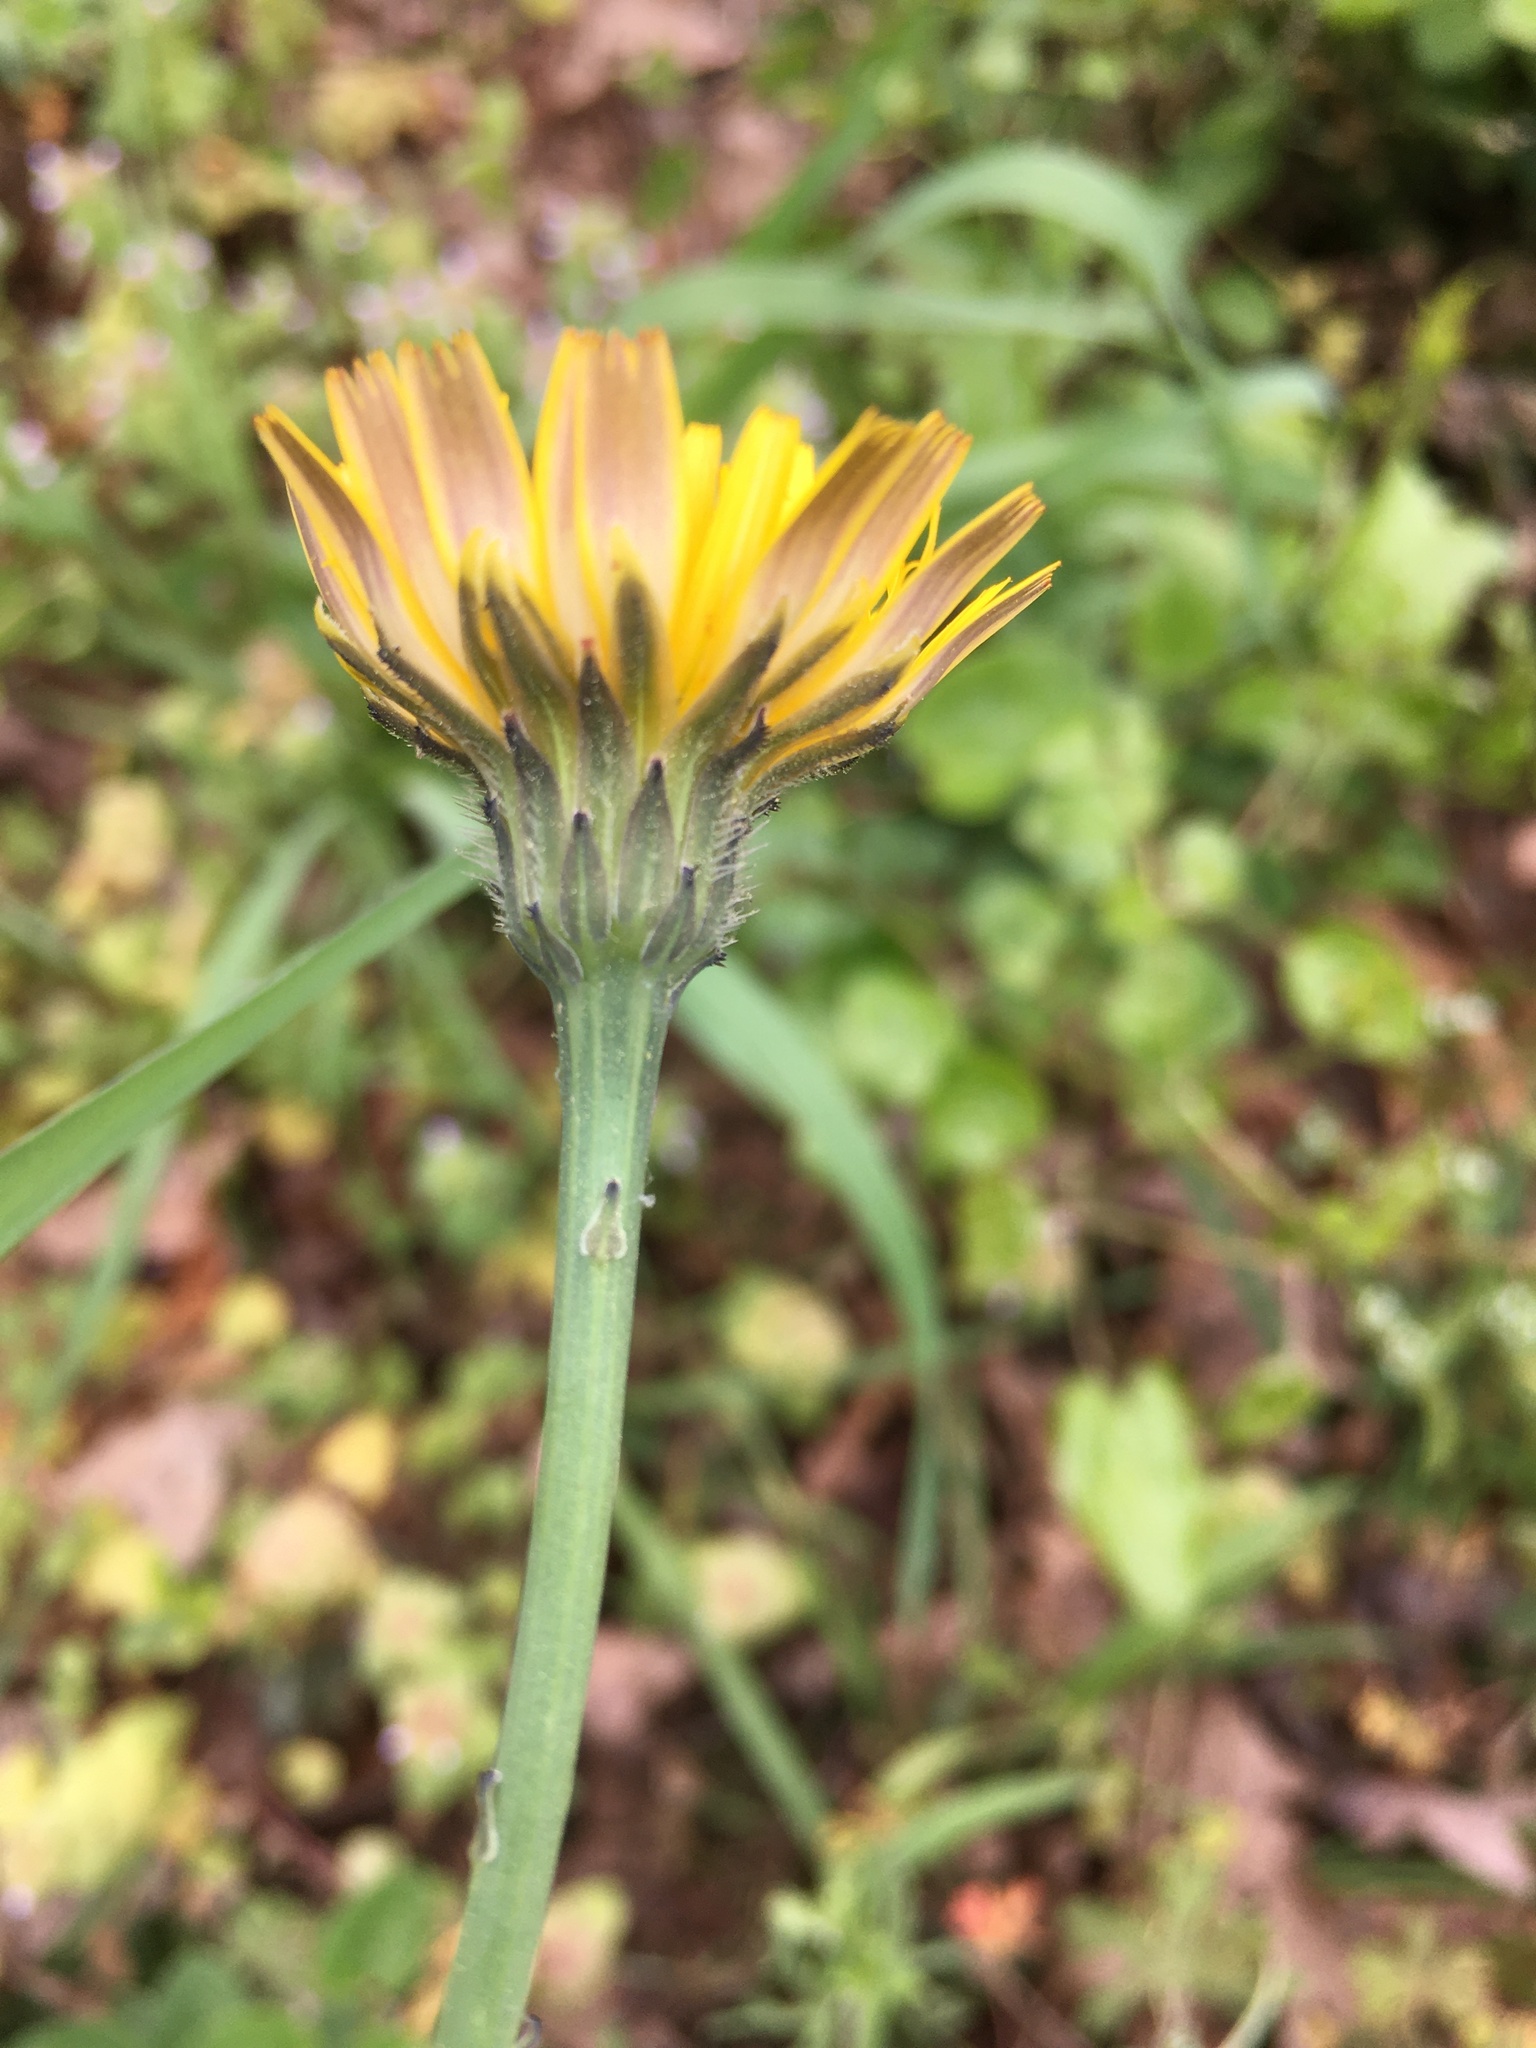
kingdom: Plantae
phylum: Tracheophyta
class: Magnoliopsida
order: Asterales
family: Asteraceae
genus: Hypochaeris
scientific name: Hypochaeris radicata
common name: Flatweed
